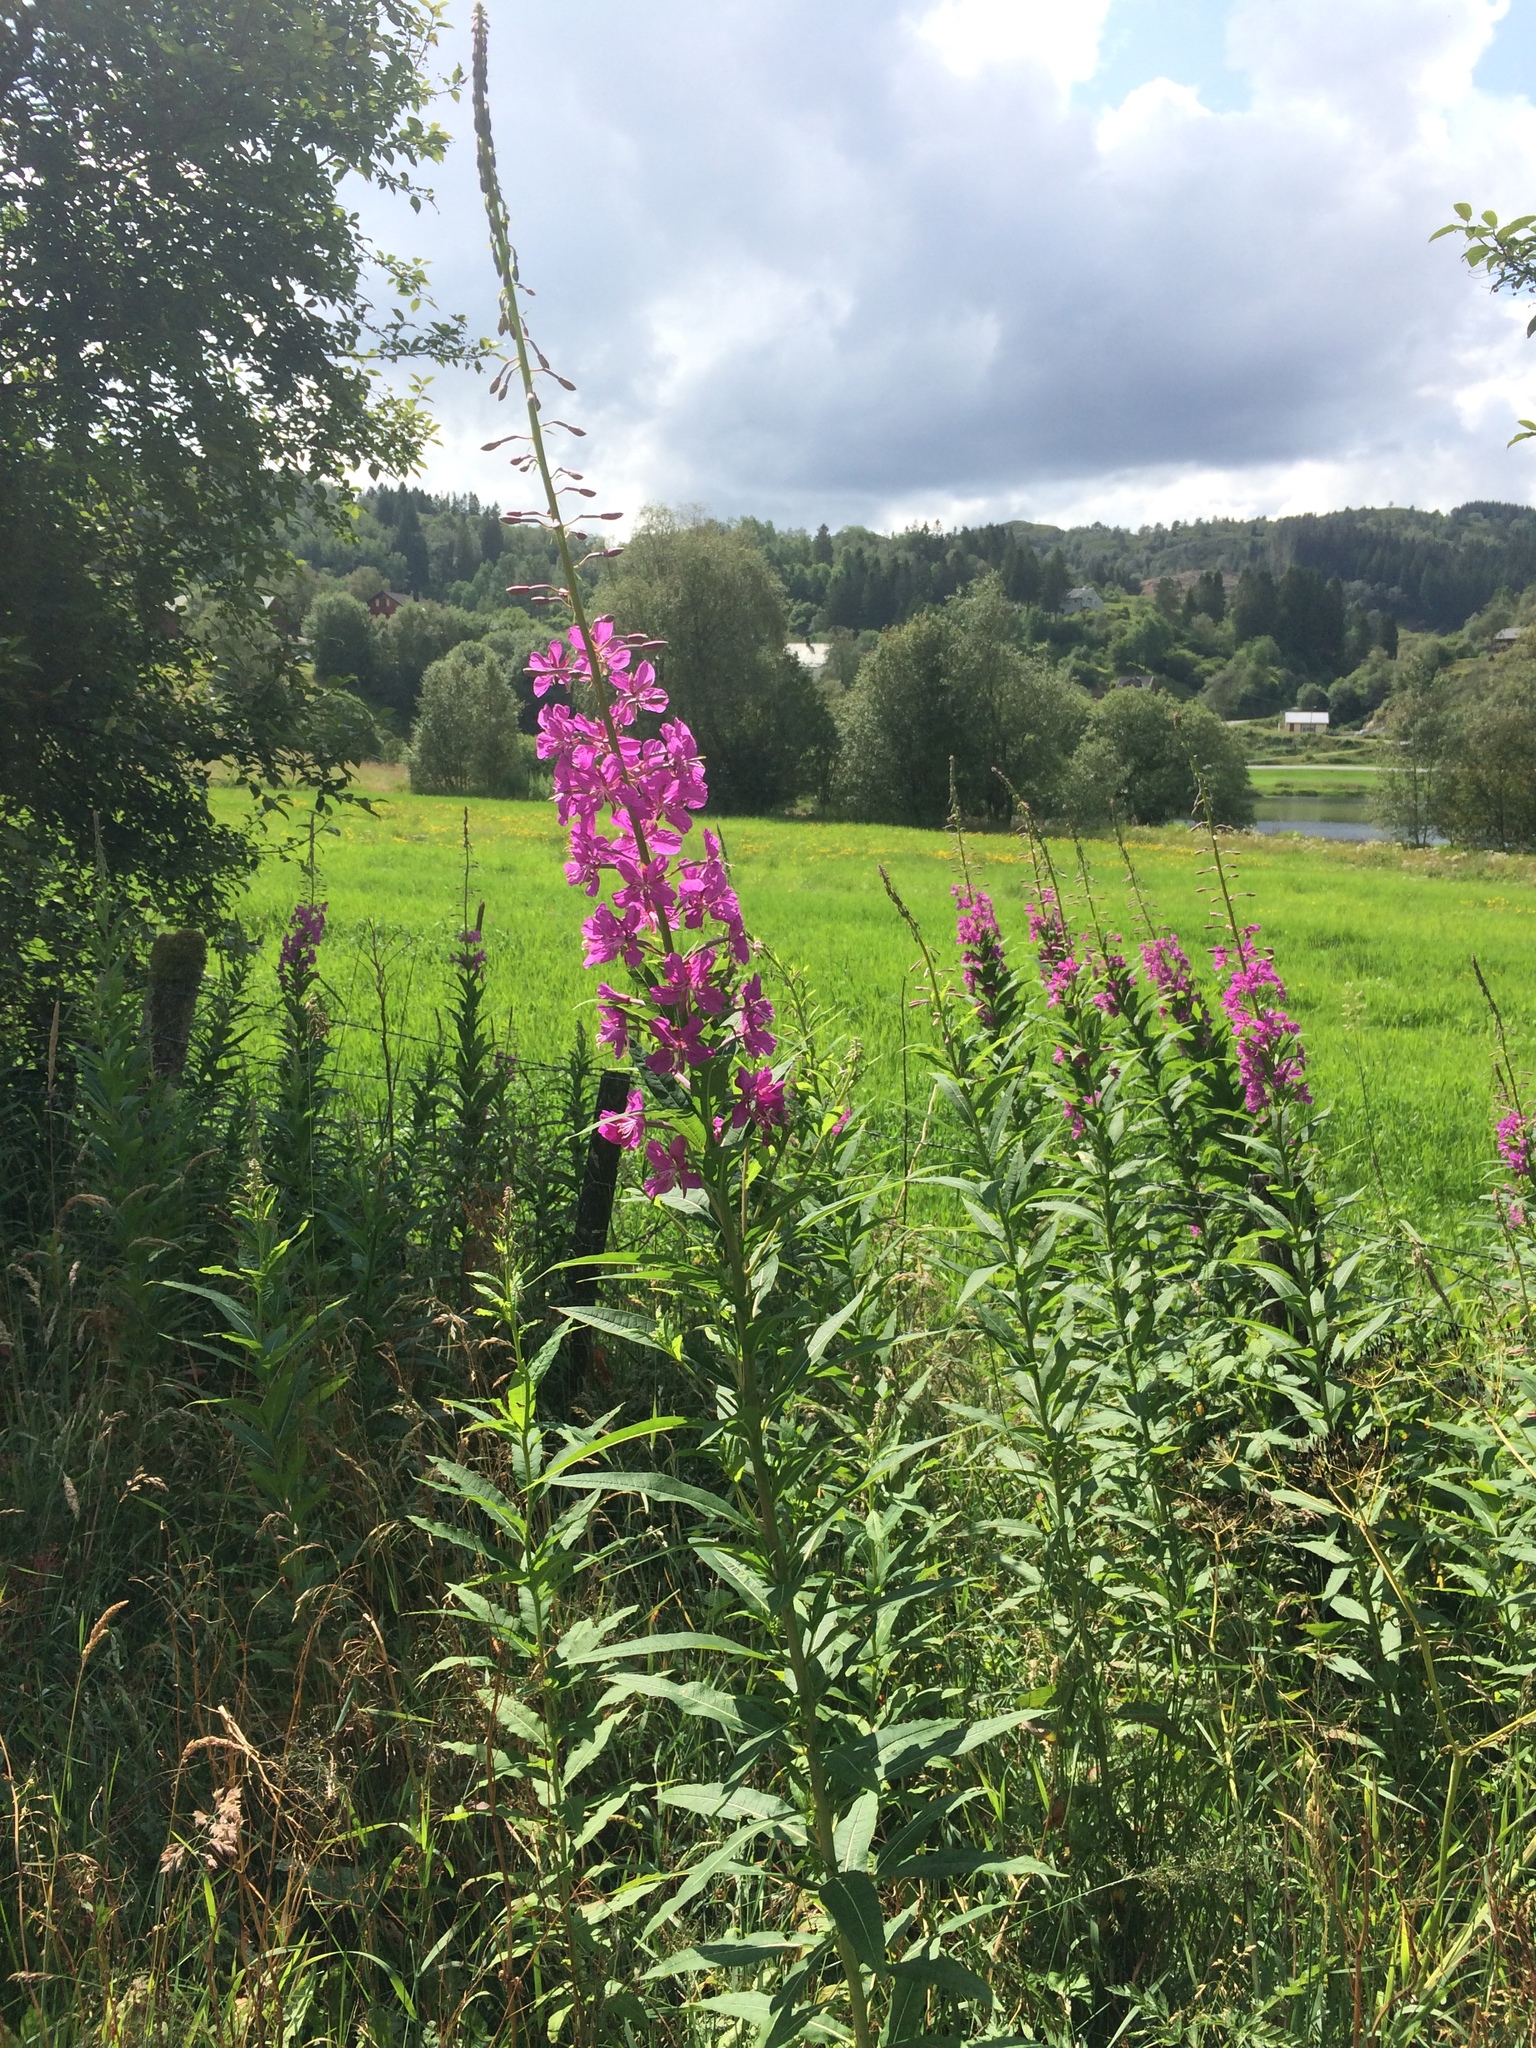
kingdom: Plantae
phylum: Tracheophyta
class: Magnoliopsida
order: Myrtales
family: Onagraceae
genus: Chamaenerion
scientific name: Chamaenerion angustifolium
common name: Fireweed
